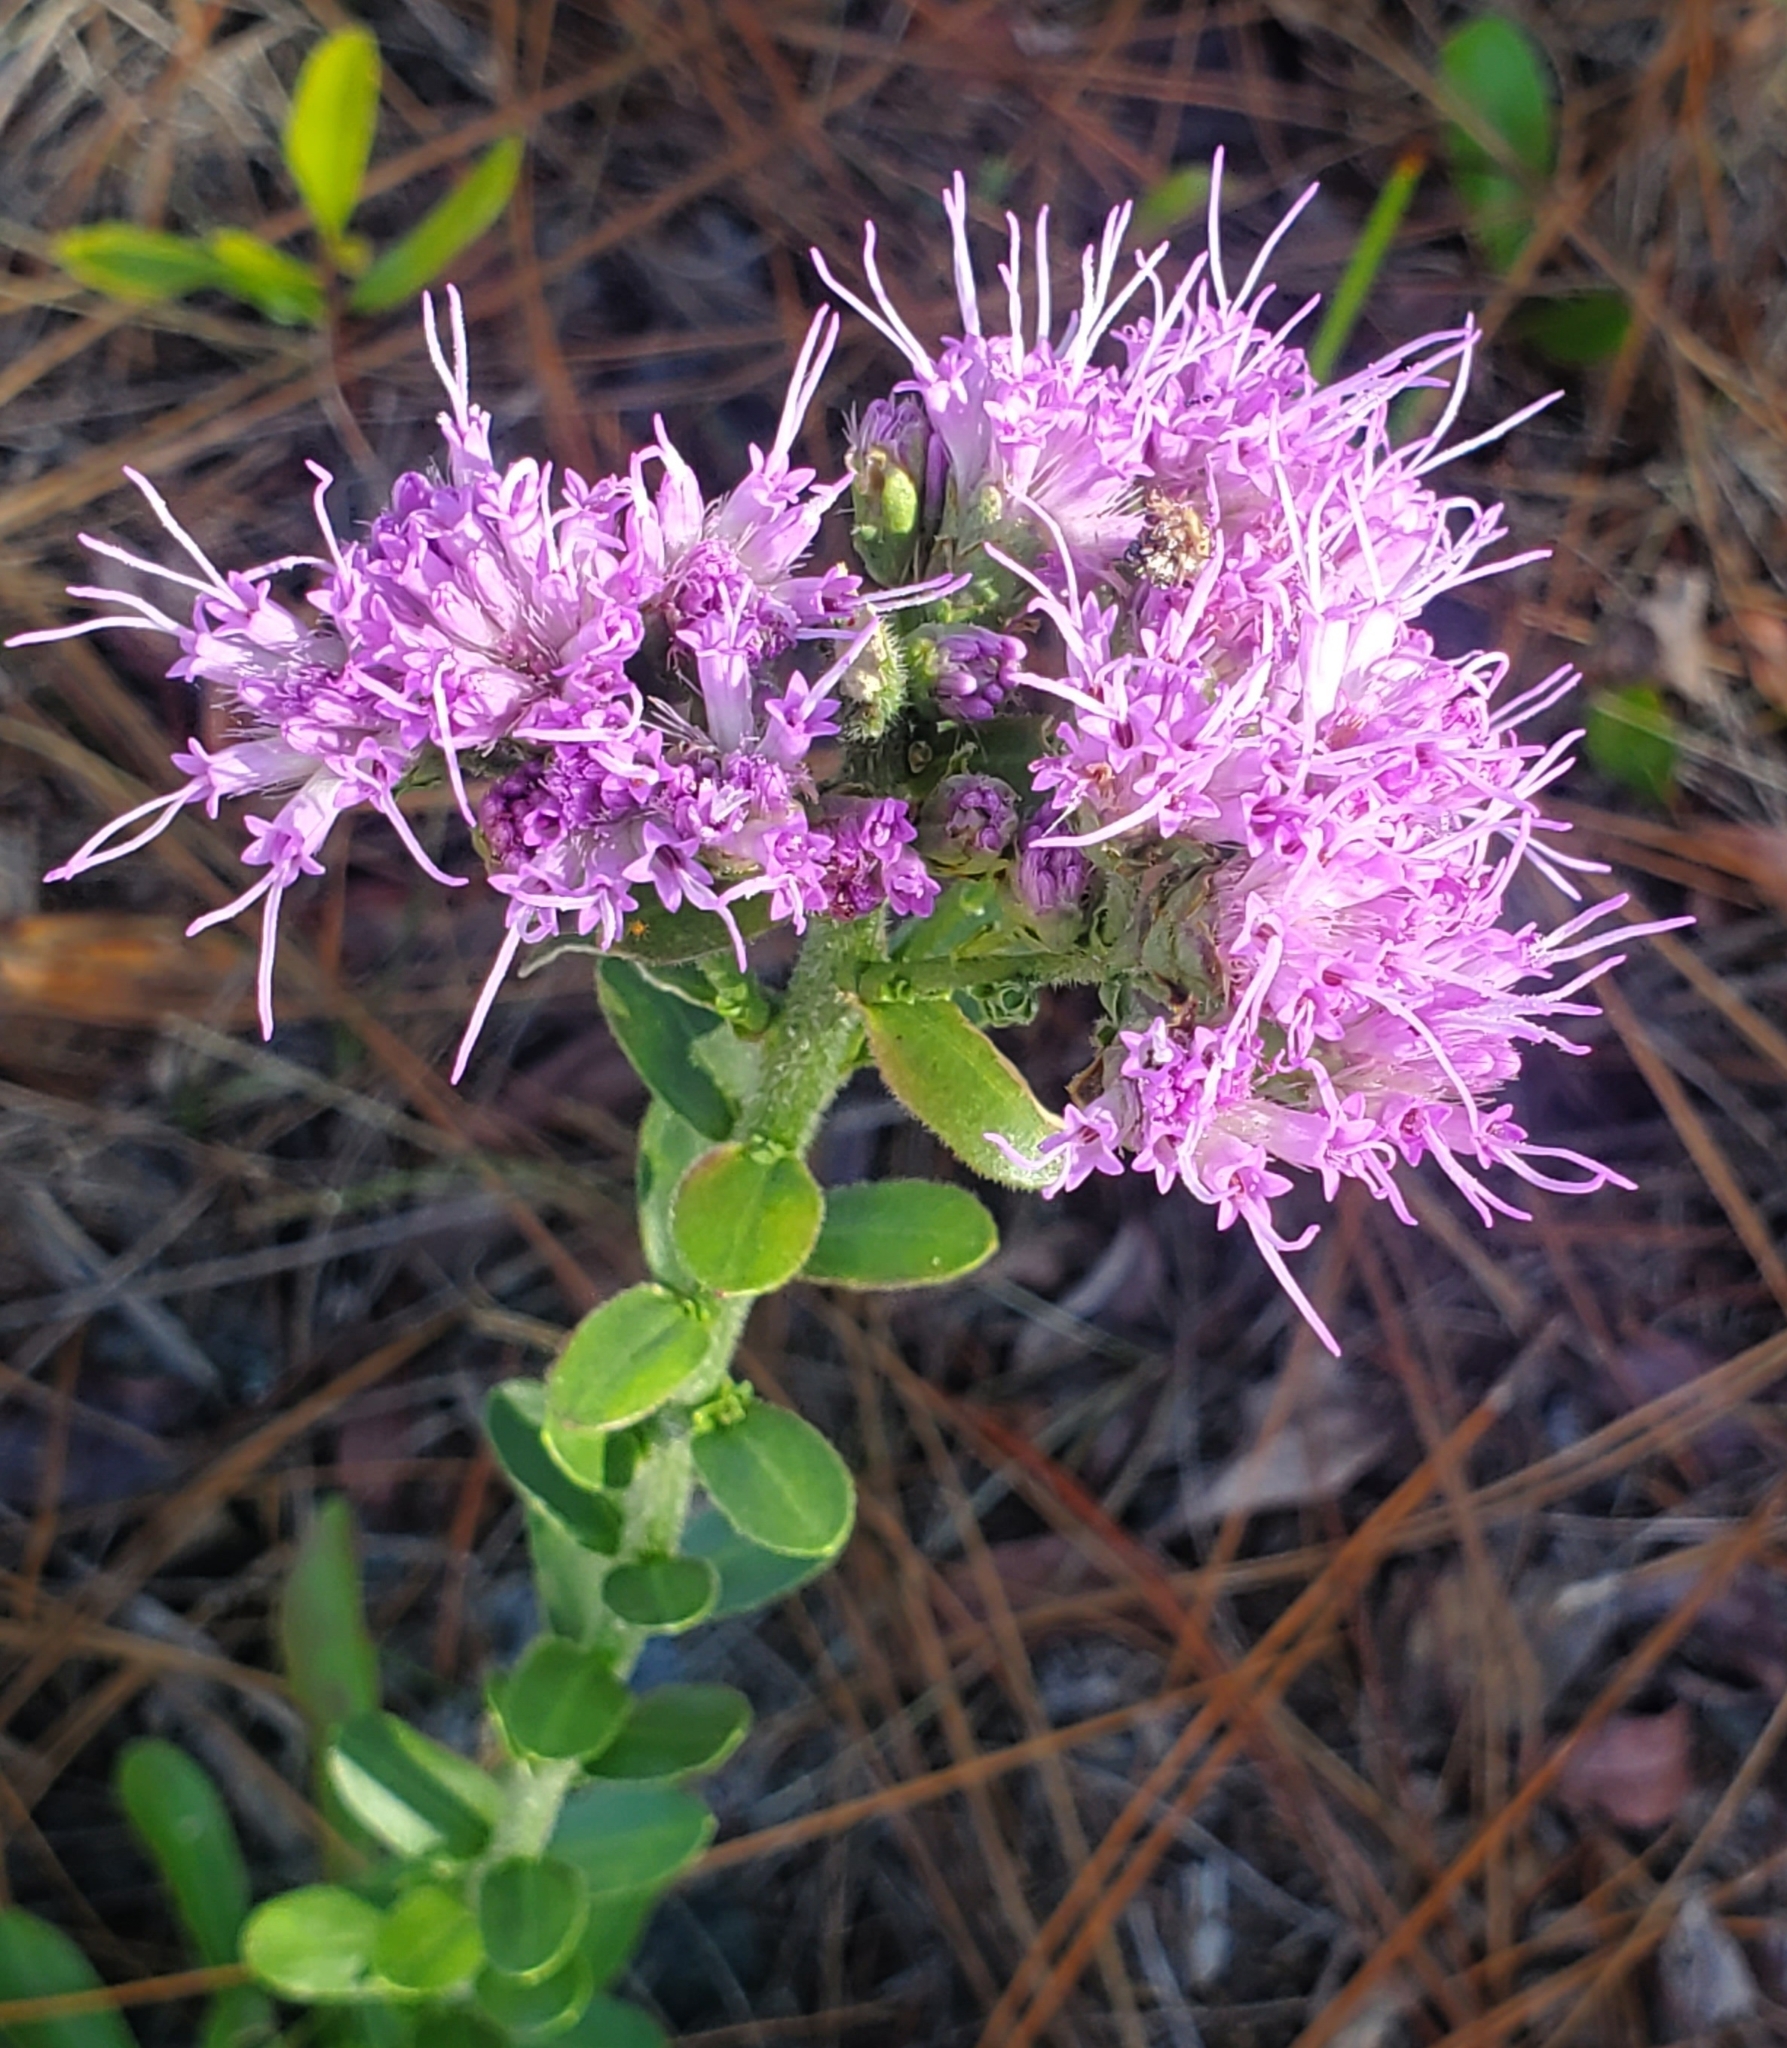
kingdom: Plantae
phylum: Tracheophyta
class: Magnoliopsida
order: Asterales
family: Asteraceae
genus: Carphephorus
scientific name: Carphephorus corymbosus
